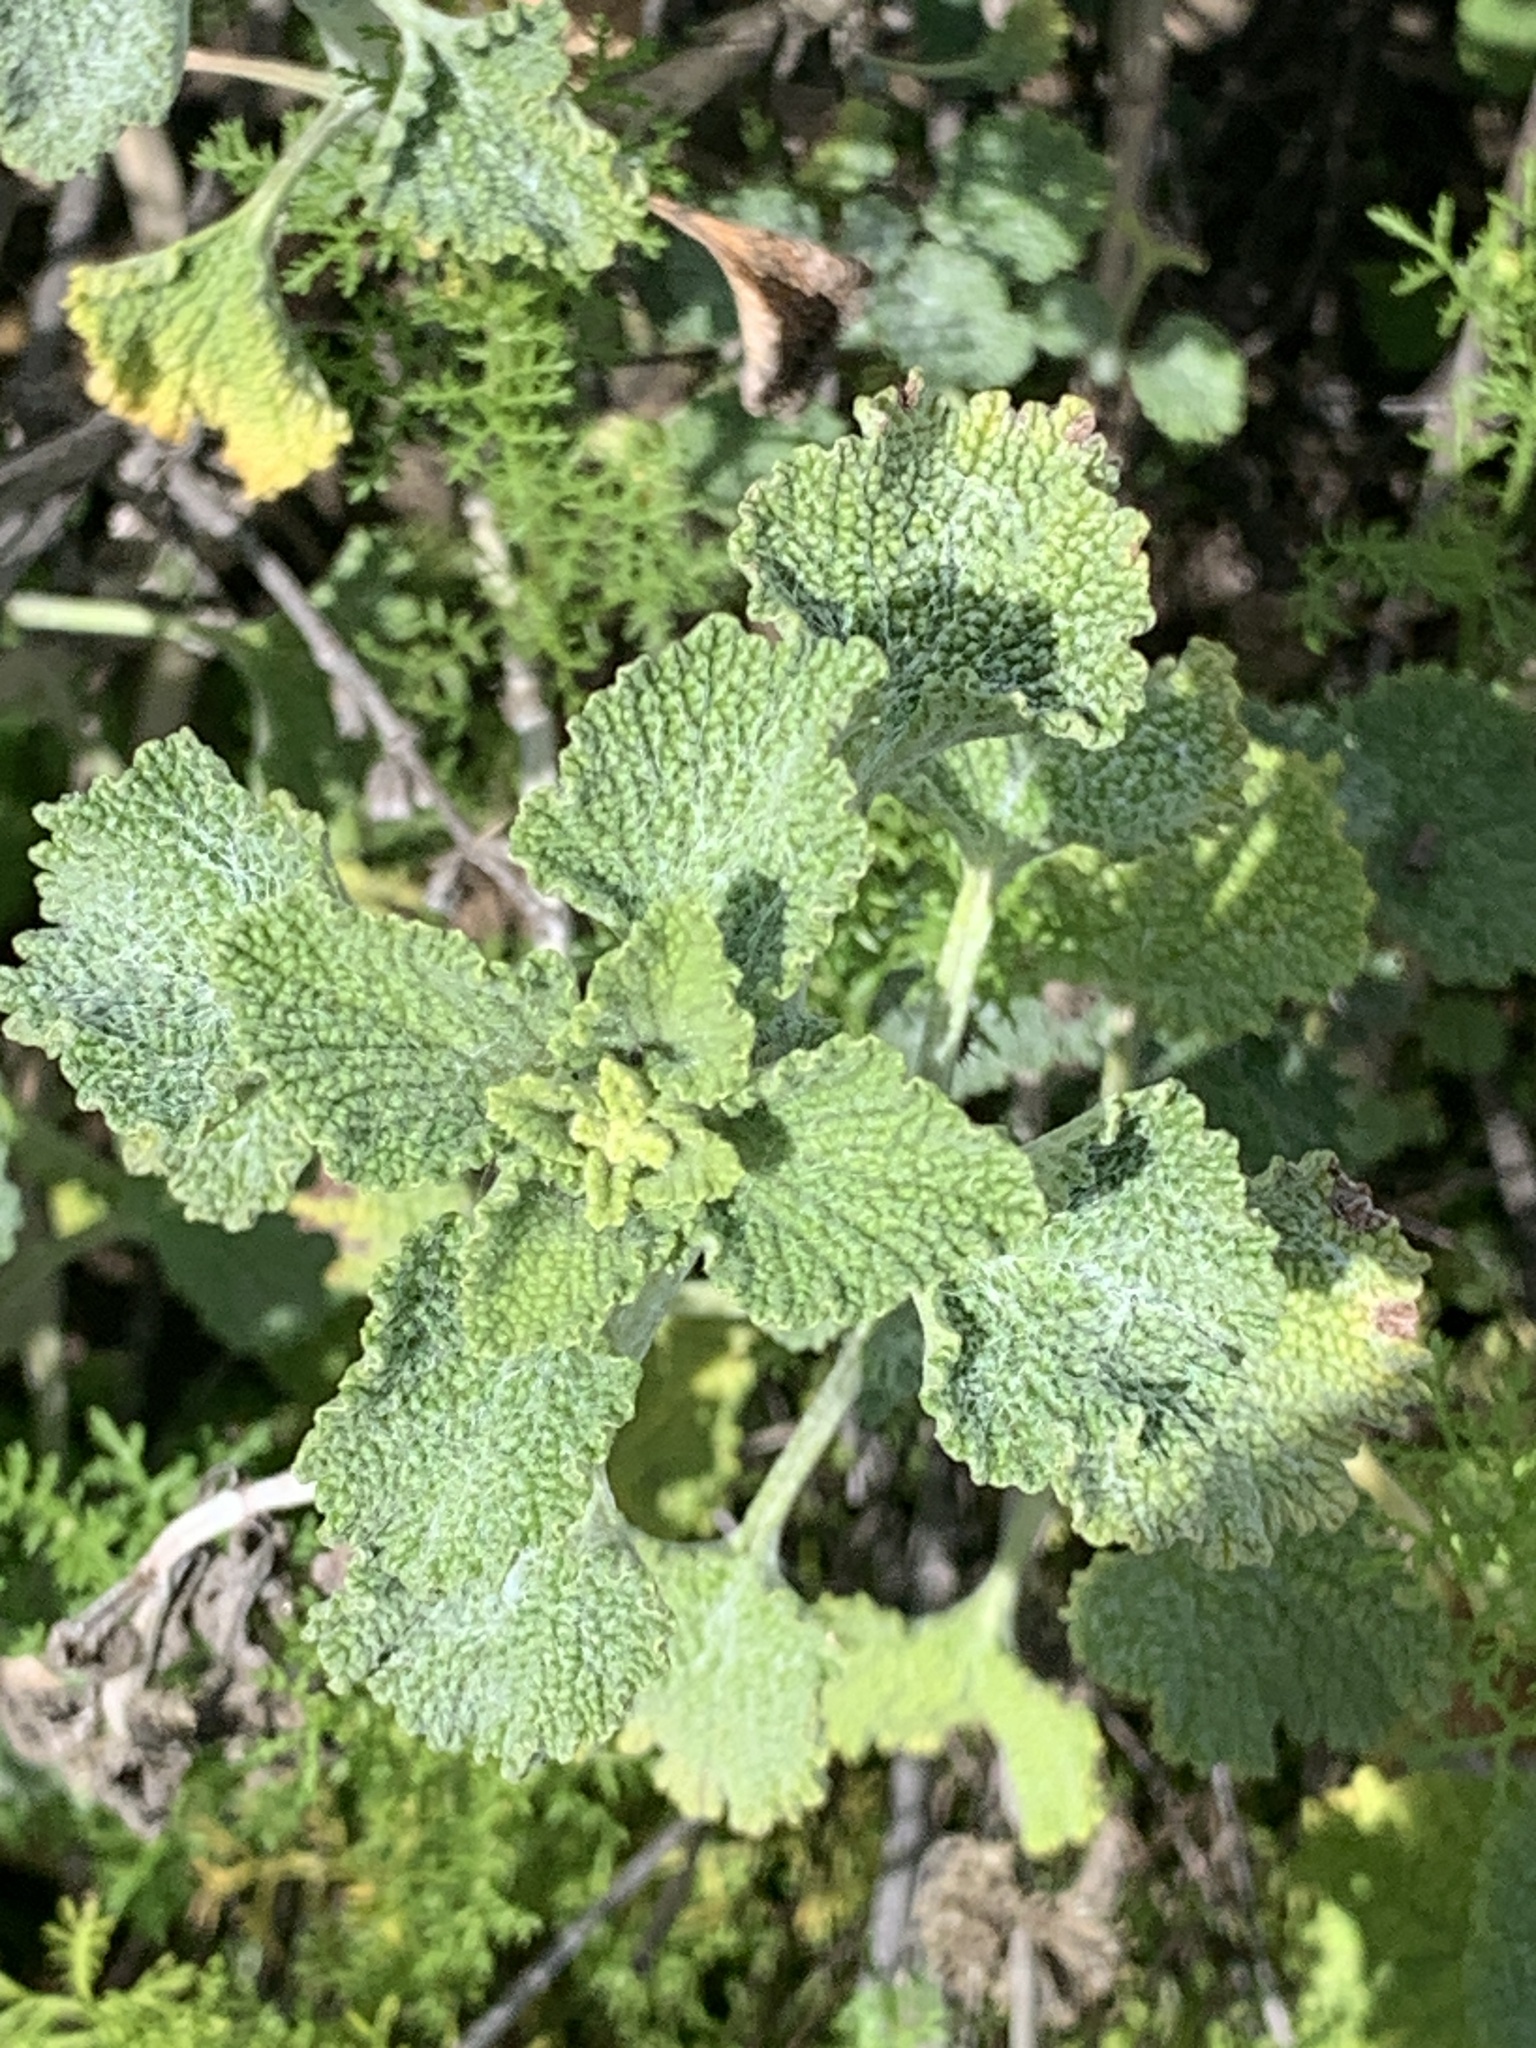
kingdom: Plantae
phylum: Tracheophyta
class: Magnoliopsida
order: Lamiales
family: Lamiaceae
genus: Marrubium
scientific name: Marrubium vulgare
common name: Horehound
